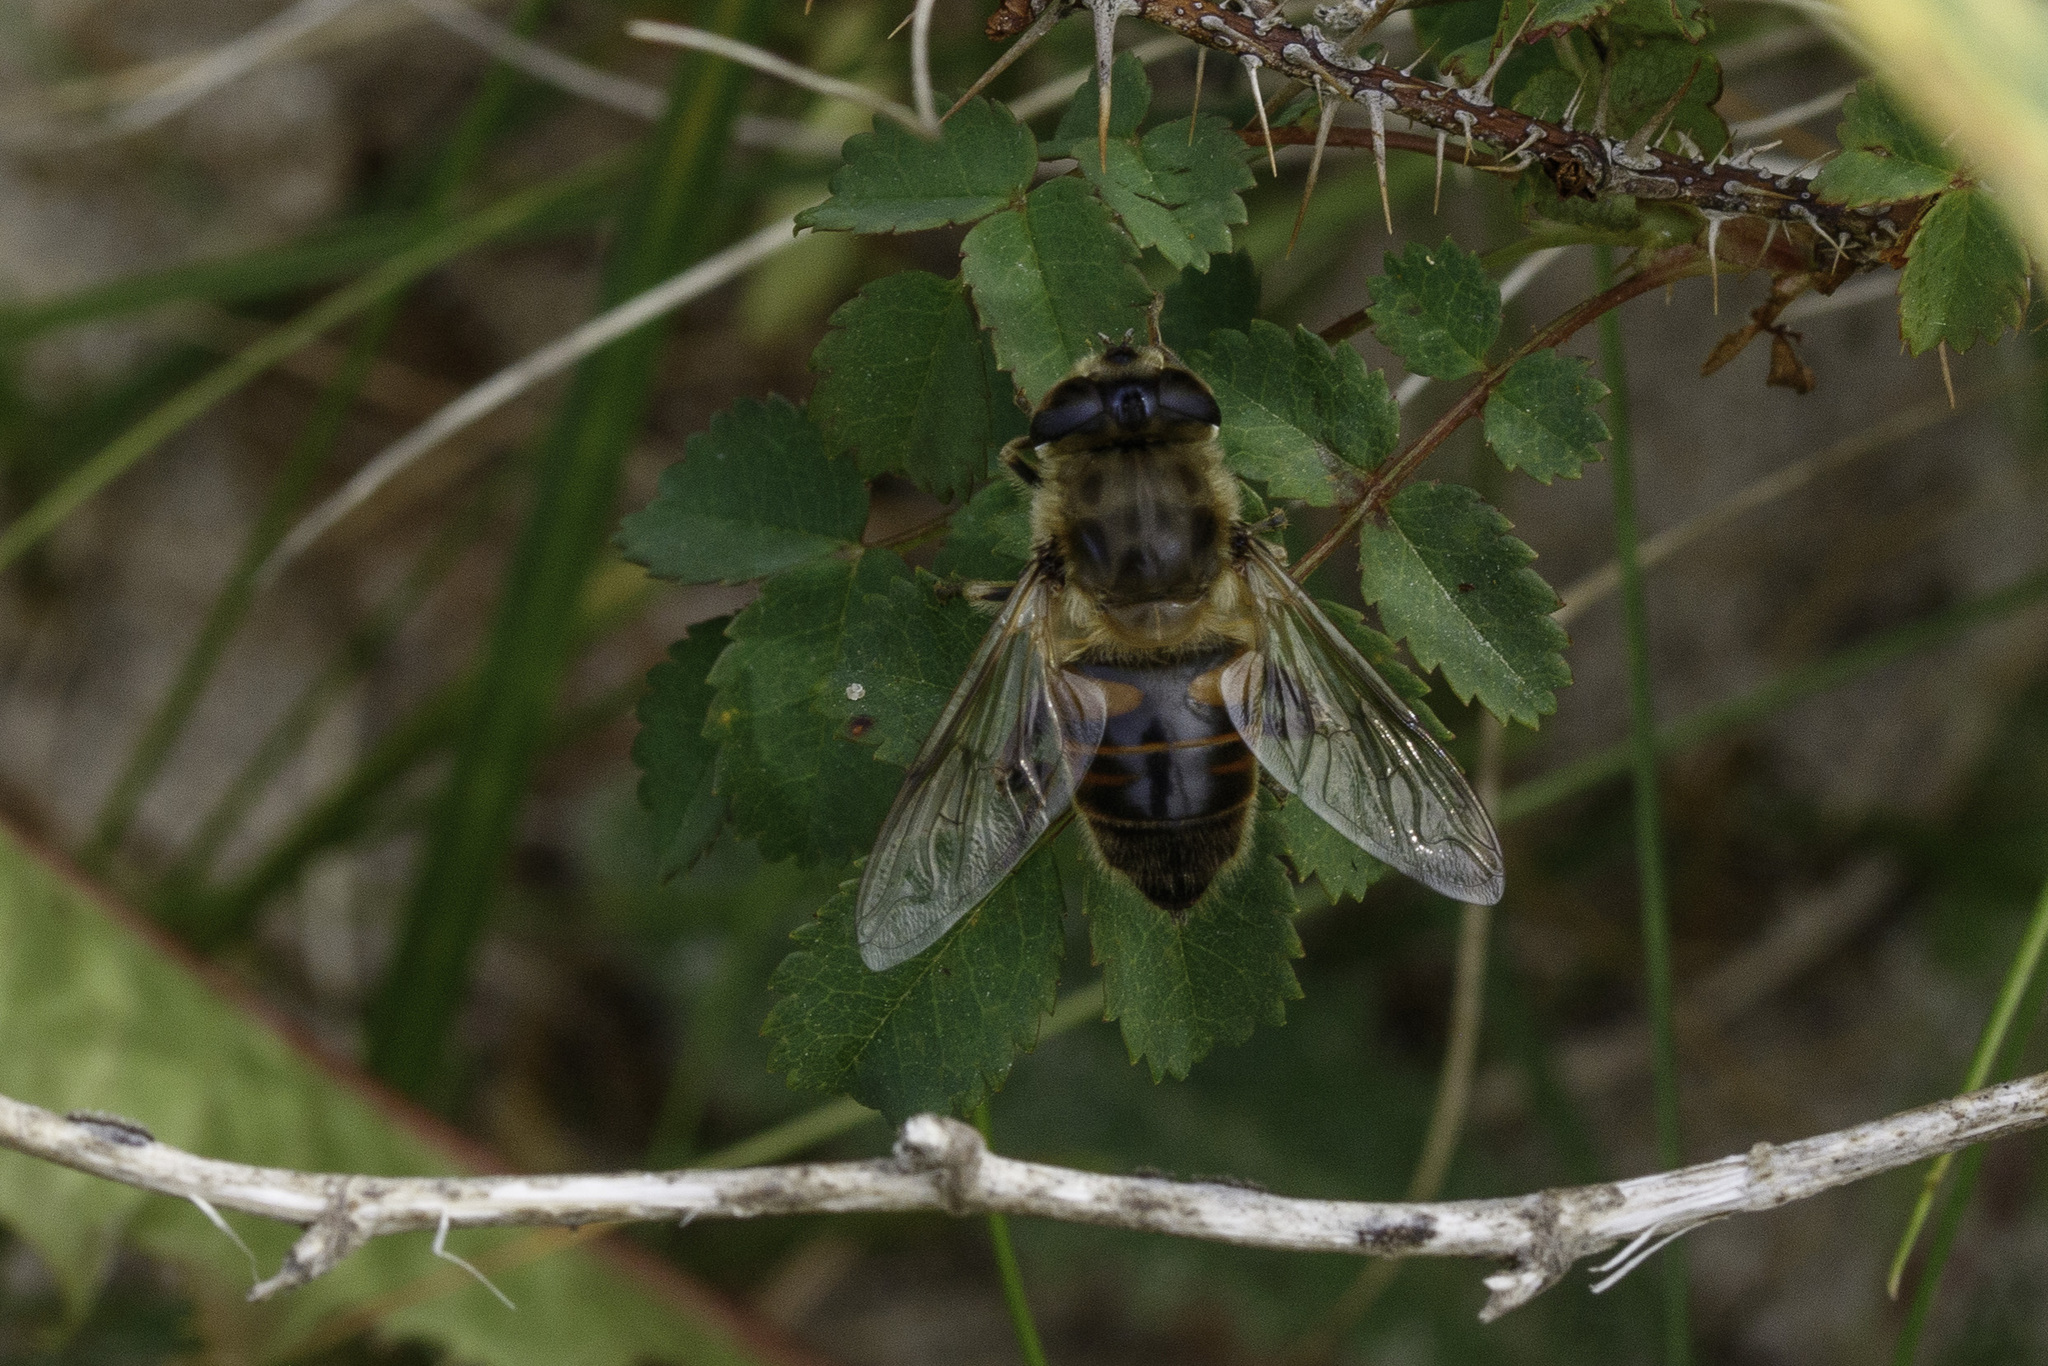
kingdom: Animalia
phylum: Arthropoda
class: Insecta
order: Diptera
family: Syrphidae
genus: Eristalis
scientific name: Eristalis tenax
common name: Drone fly
